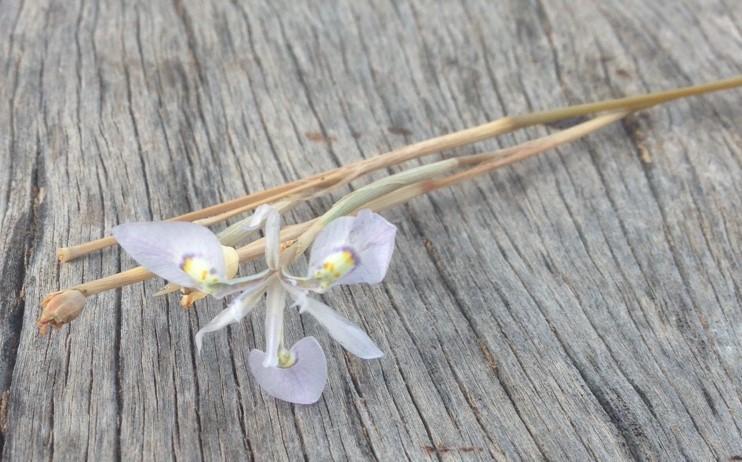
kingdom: Plantae
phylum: Tracheophyta
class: Liliopsida
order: Asparagales
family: Iridaceae
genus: Moraea
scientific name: Moraea elliotii
